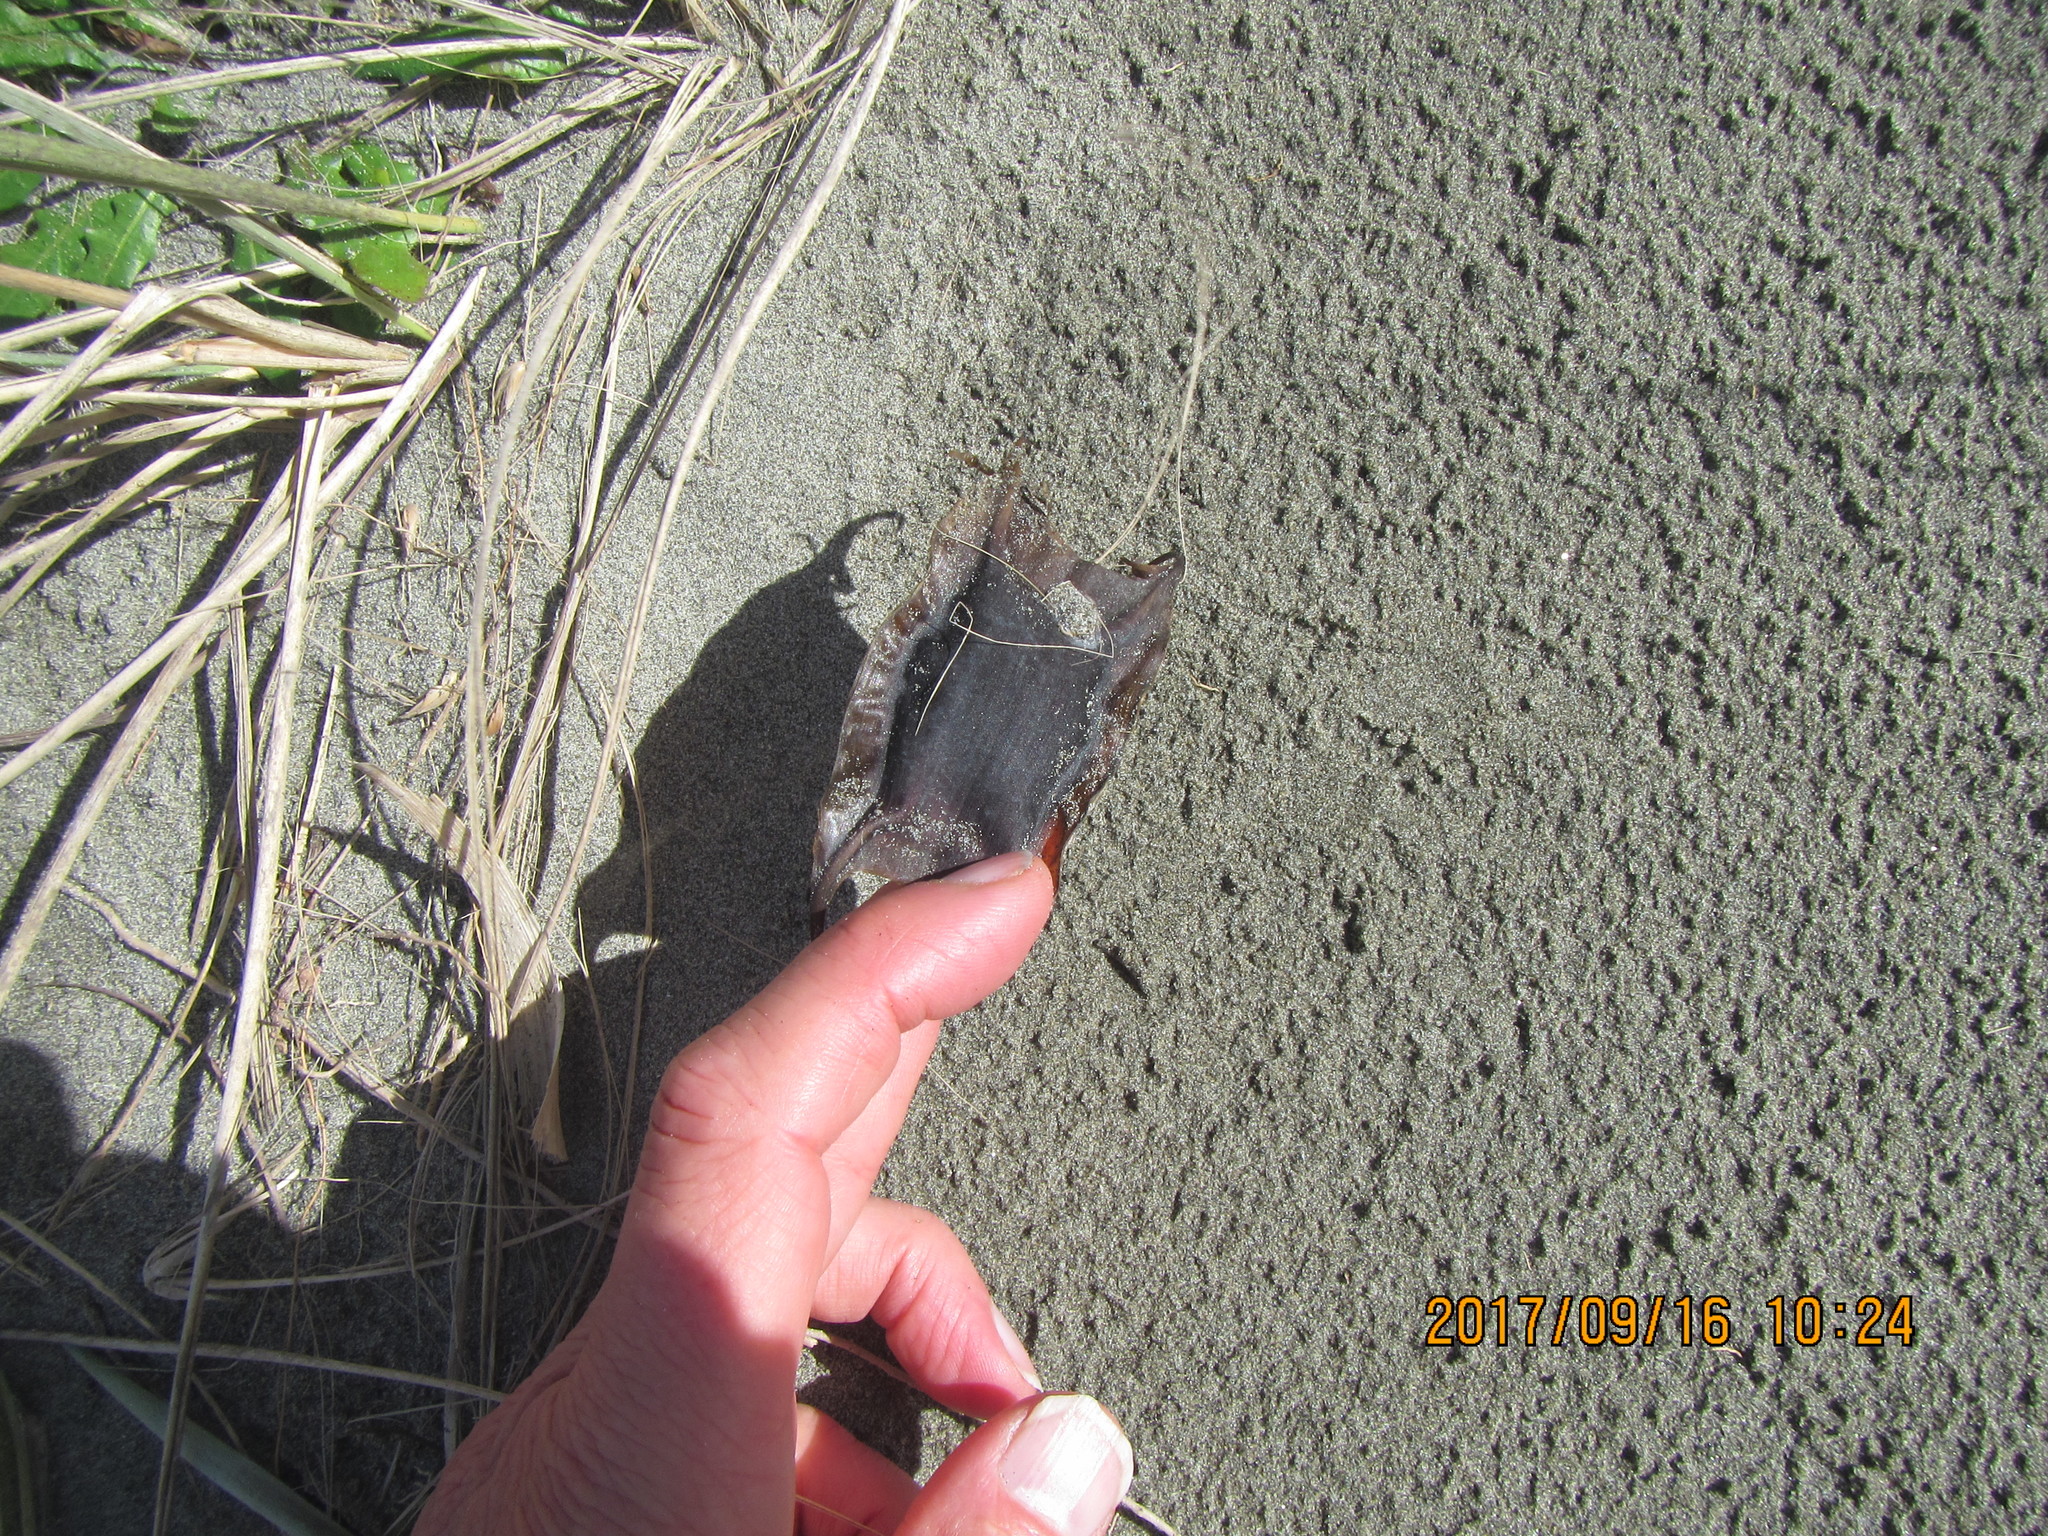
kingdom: Animalia
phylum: Chordata
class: Elasmobranchii
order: Rajiformes
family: Rajidae
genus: Zearaja
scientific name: Zearaja nasuta
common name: New zealand rough skate
